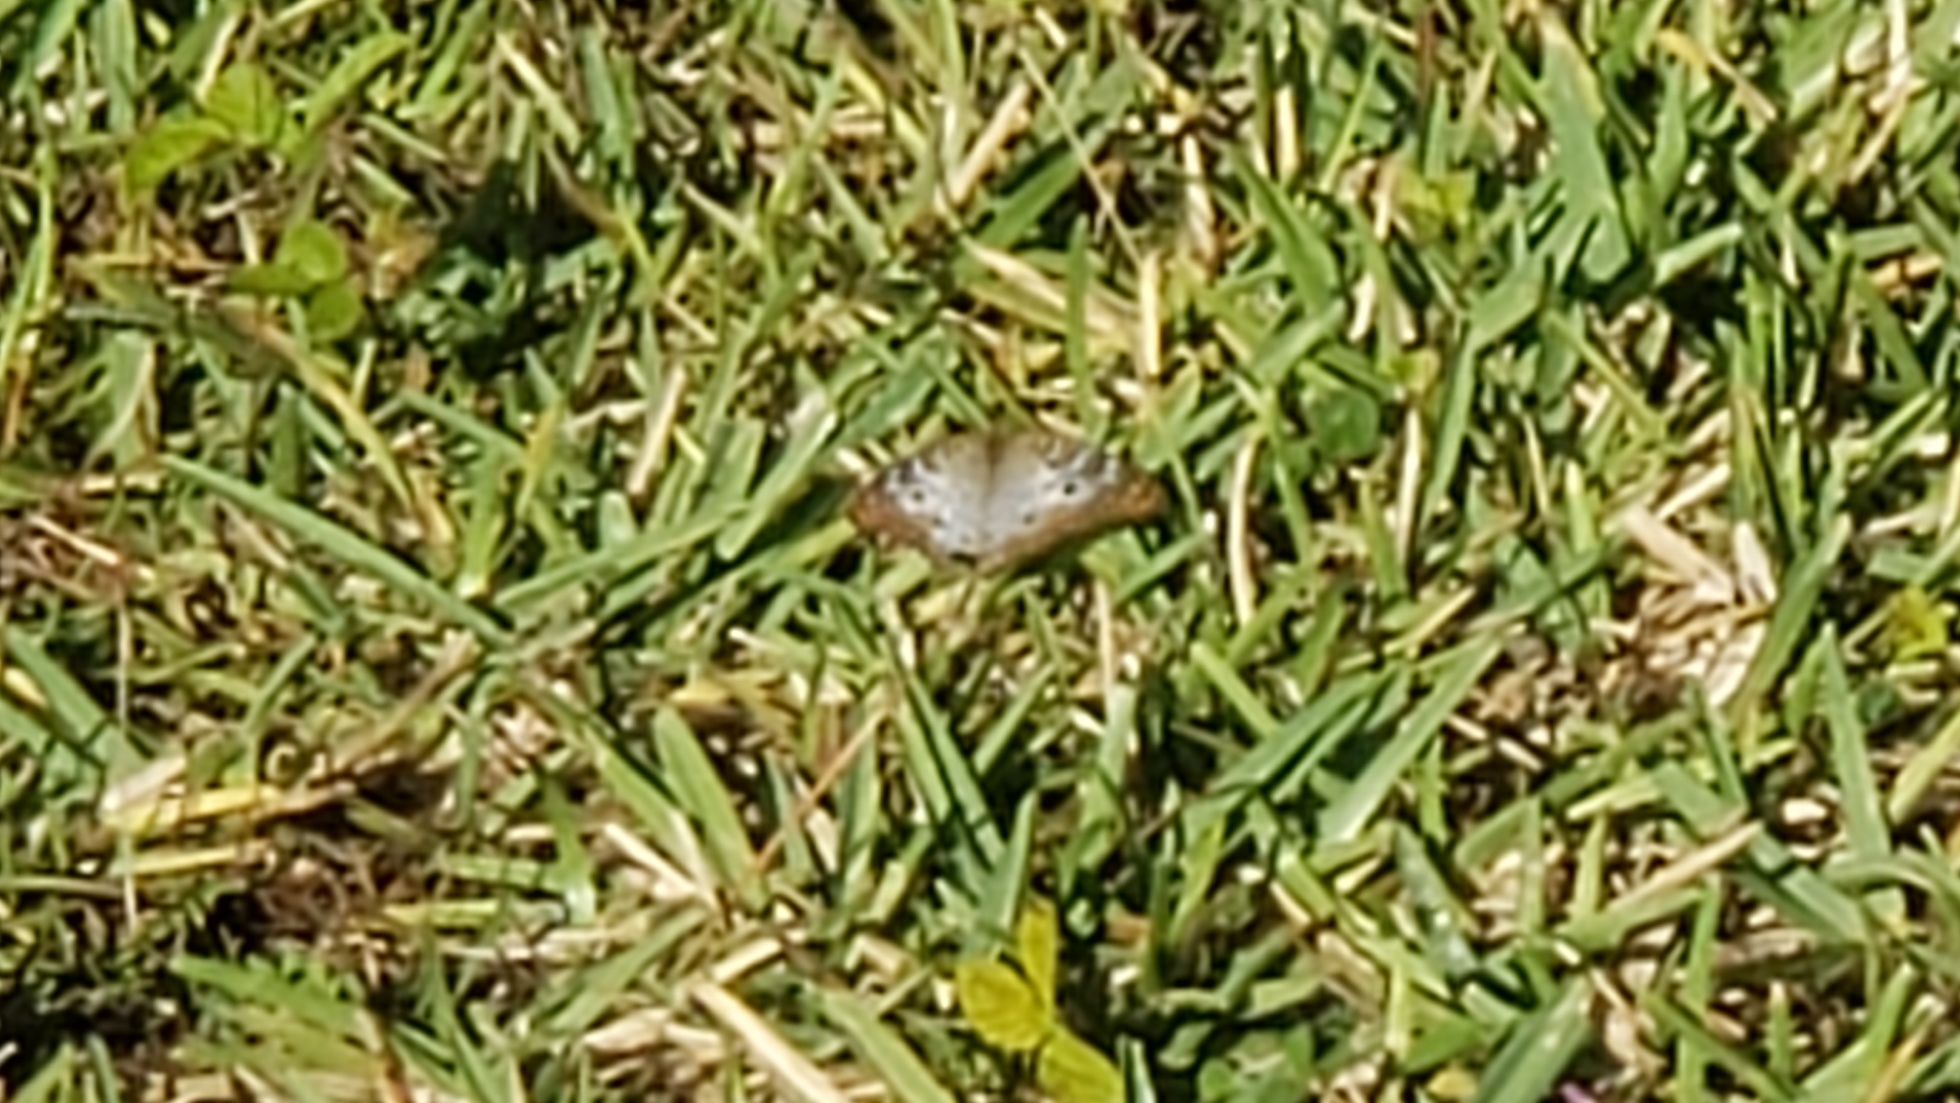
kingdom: Animalia
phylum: Arthropoda
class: Insecta
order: Lepidoptera
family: Nymphalidae
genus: Anartia
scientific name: Anartia jatrophae
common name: White peacock
